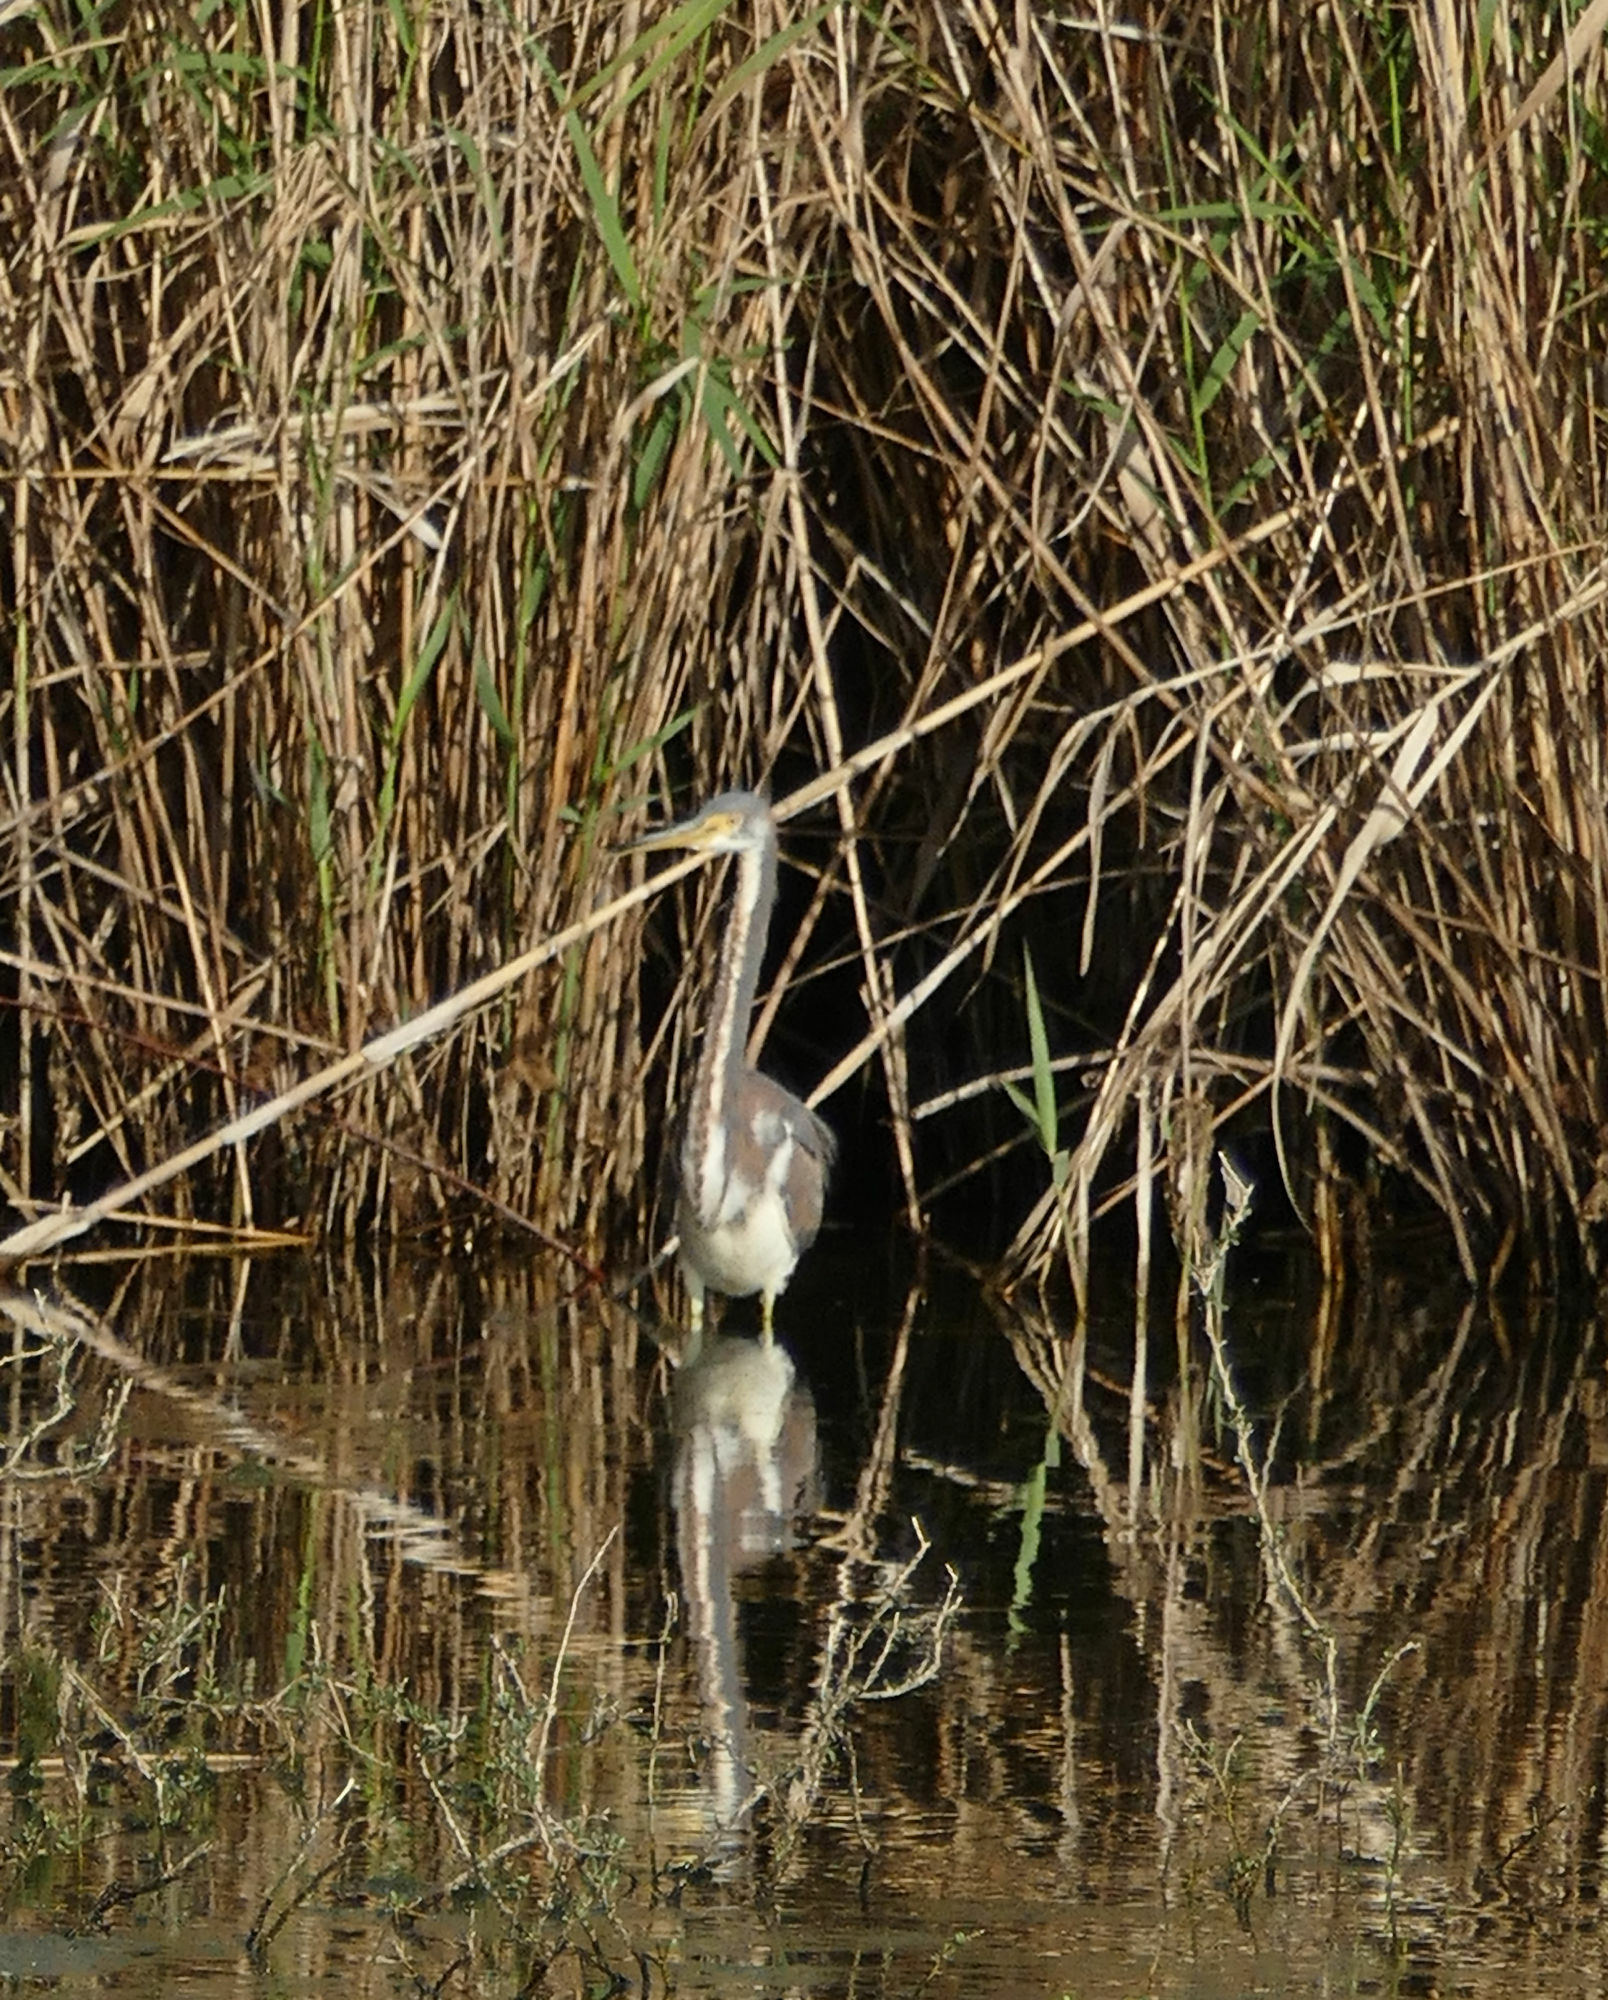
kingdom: Animalia
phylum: Chordata
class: Aves
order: Pelecaniformes
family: Ardeidae
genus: Egretta
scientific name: Egretta tricolor
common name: Tricolored heron
